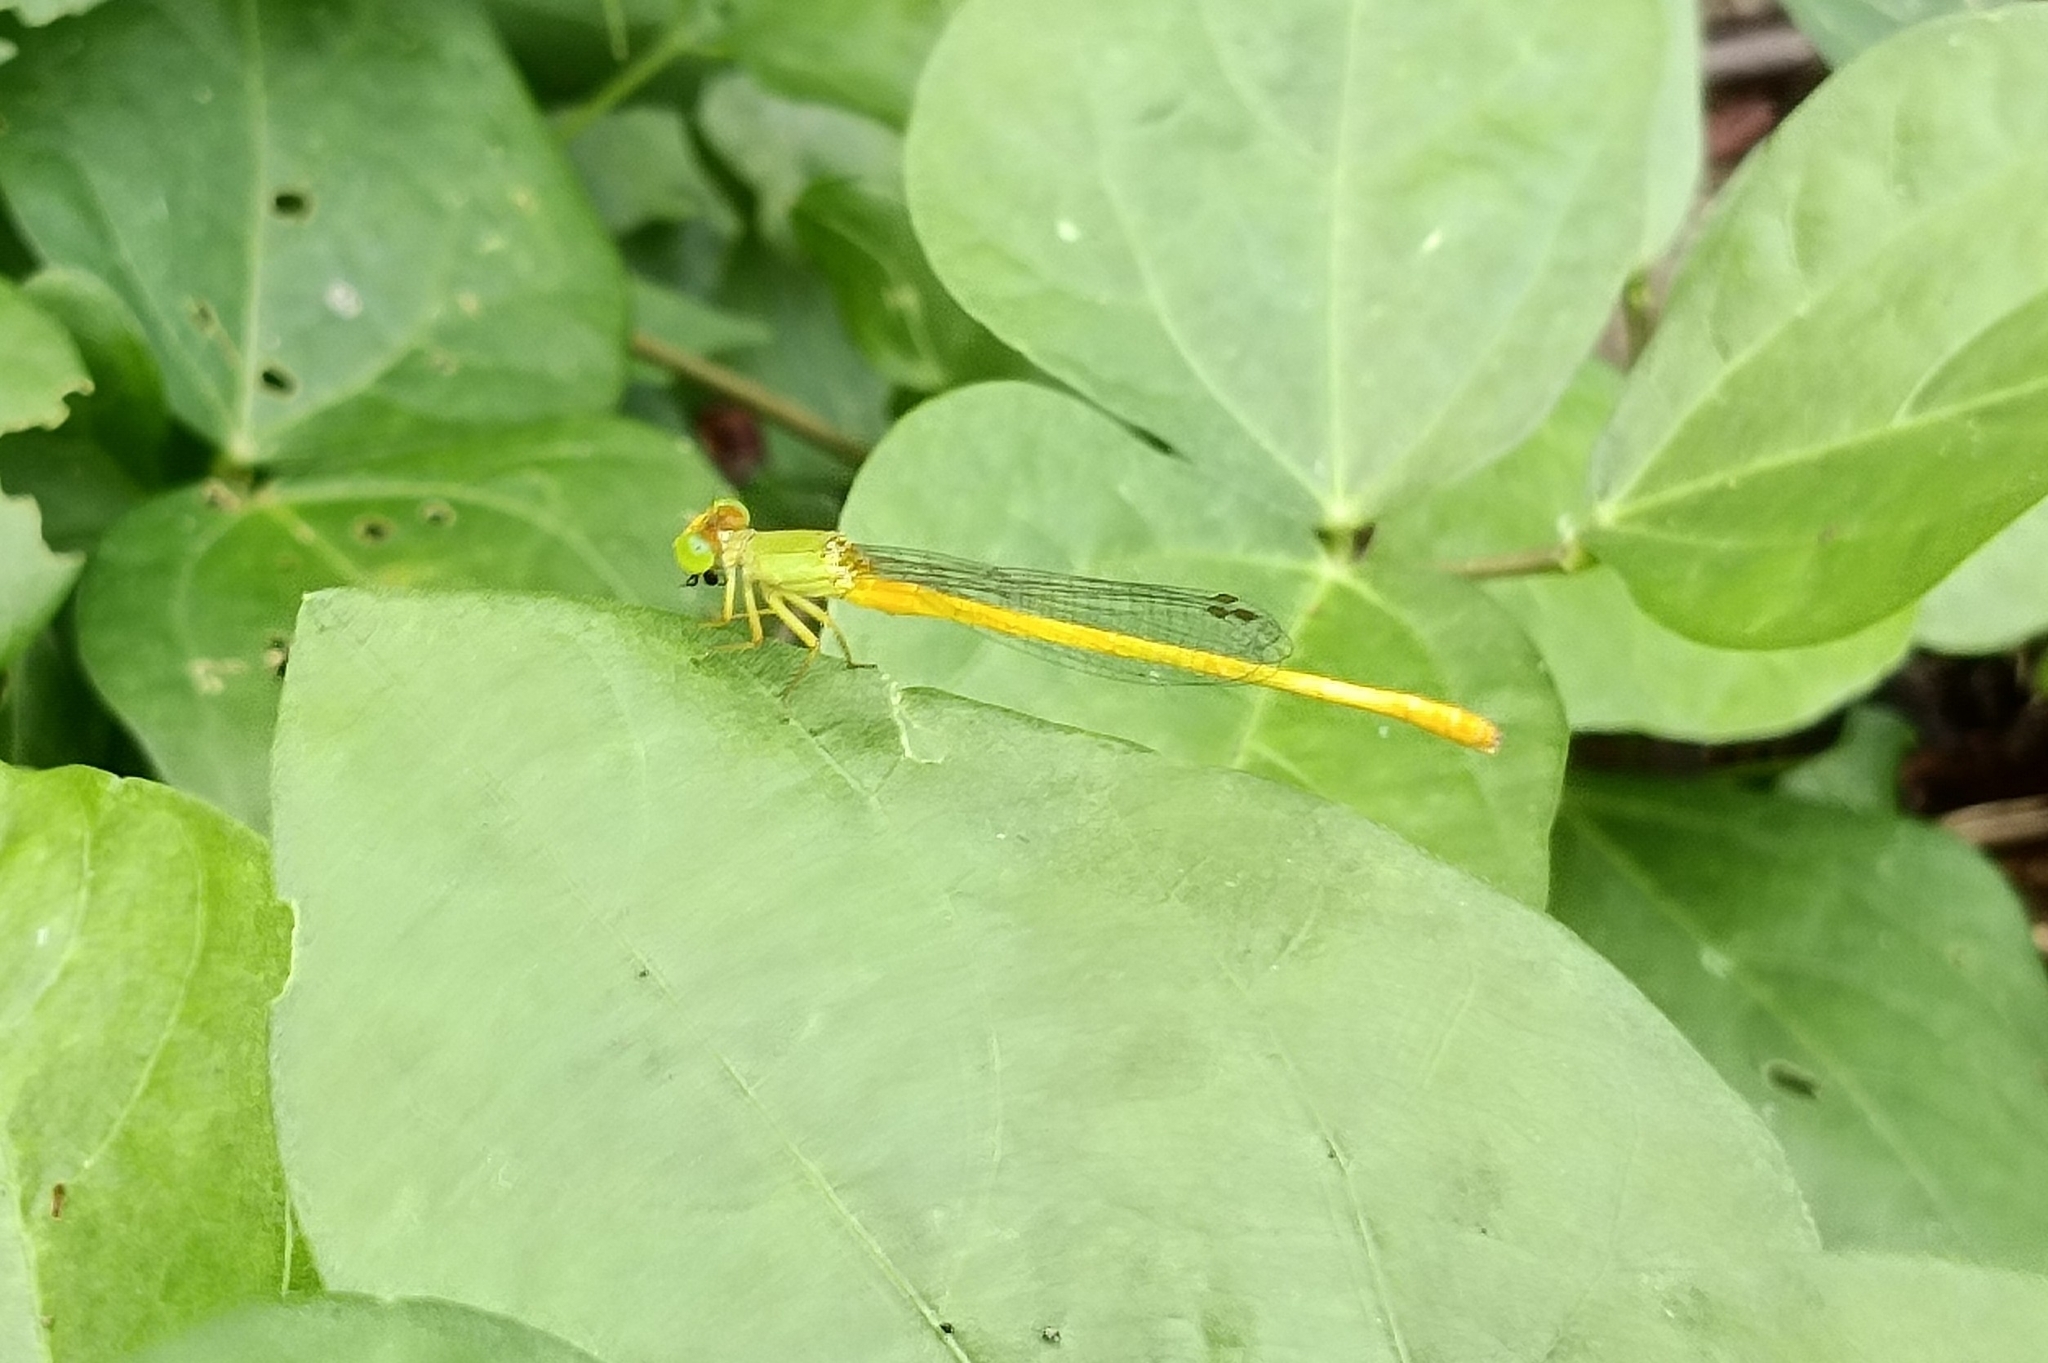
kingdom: Animalia
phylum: Arthropoda
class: Insecta
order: Odonata
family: Coenagrionidae
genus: Ceriagrion
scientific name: Ceriagrion coromandelianum
